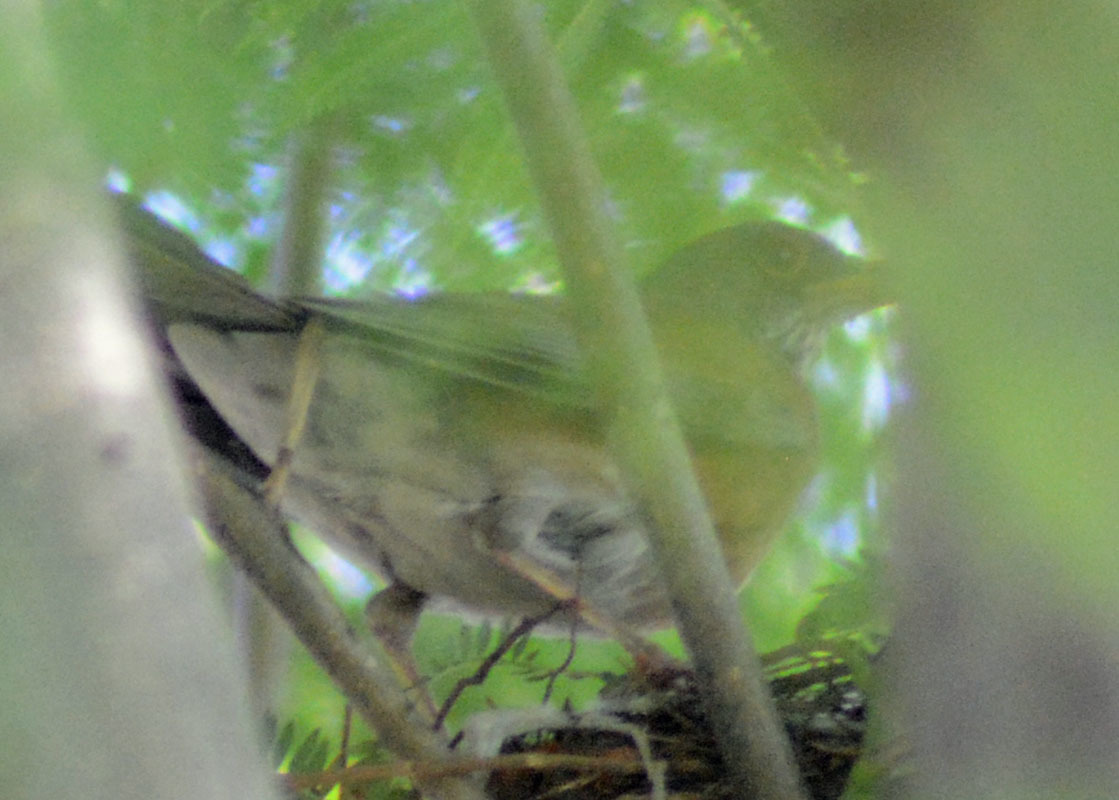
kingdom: Animalia
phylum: Chordata
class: Aves
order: Passeriformes
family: Turdidae
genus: Turdus
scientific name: Turdus rufopalliatus
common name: Rufous-backed robin
